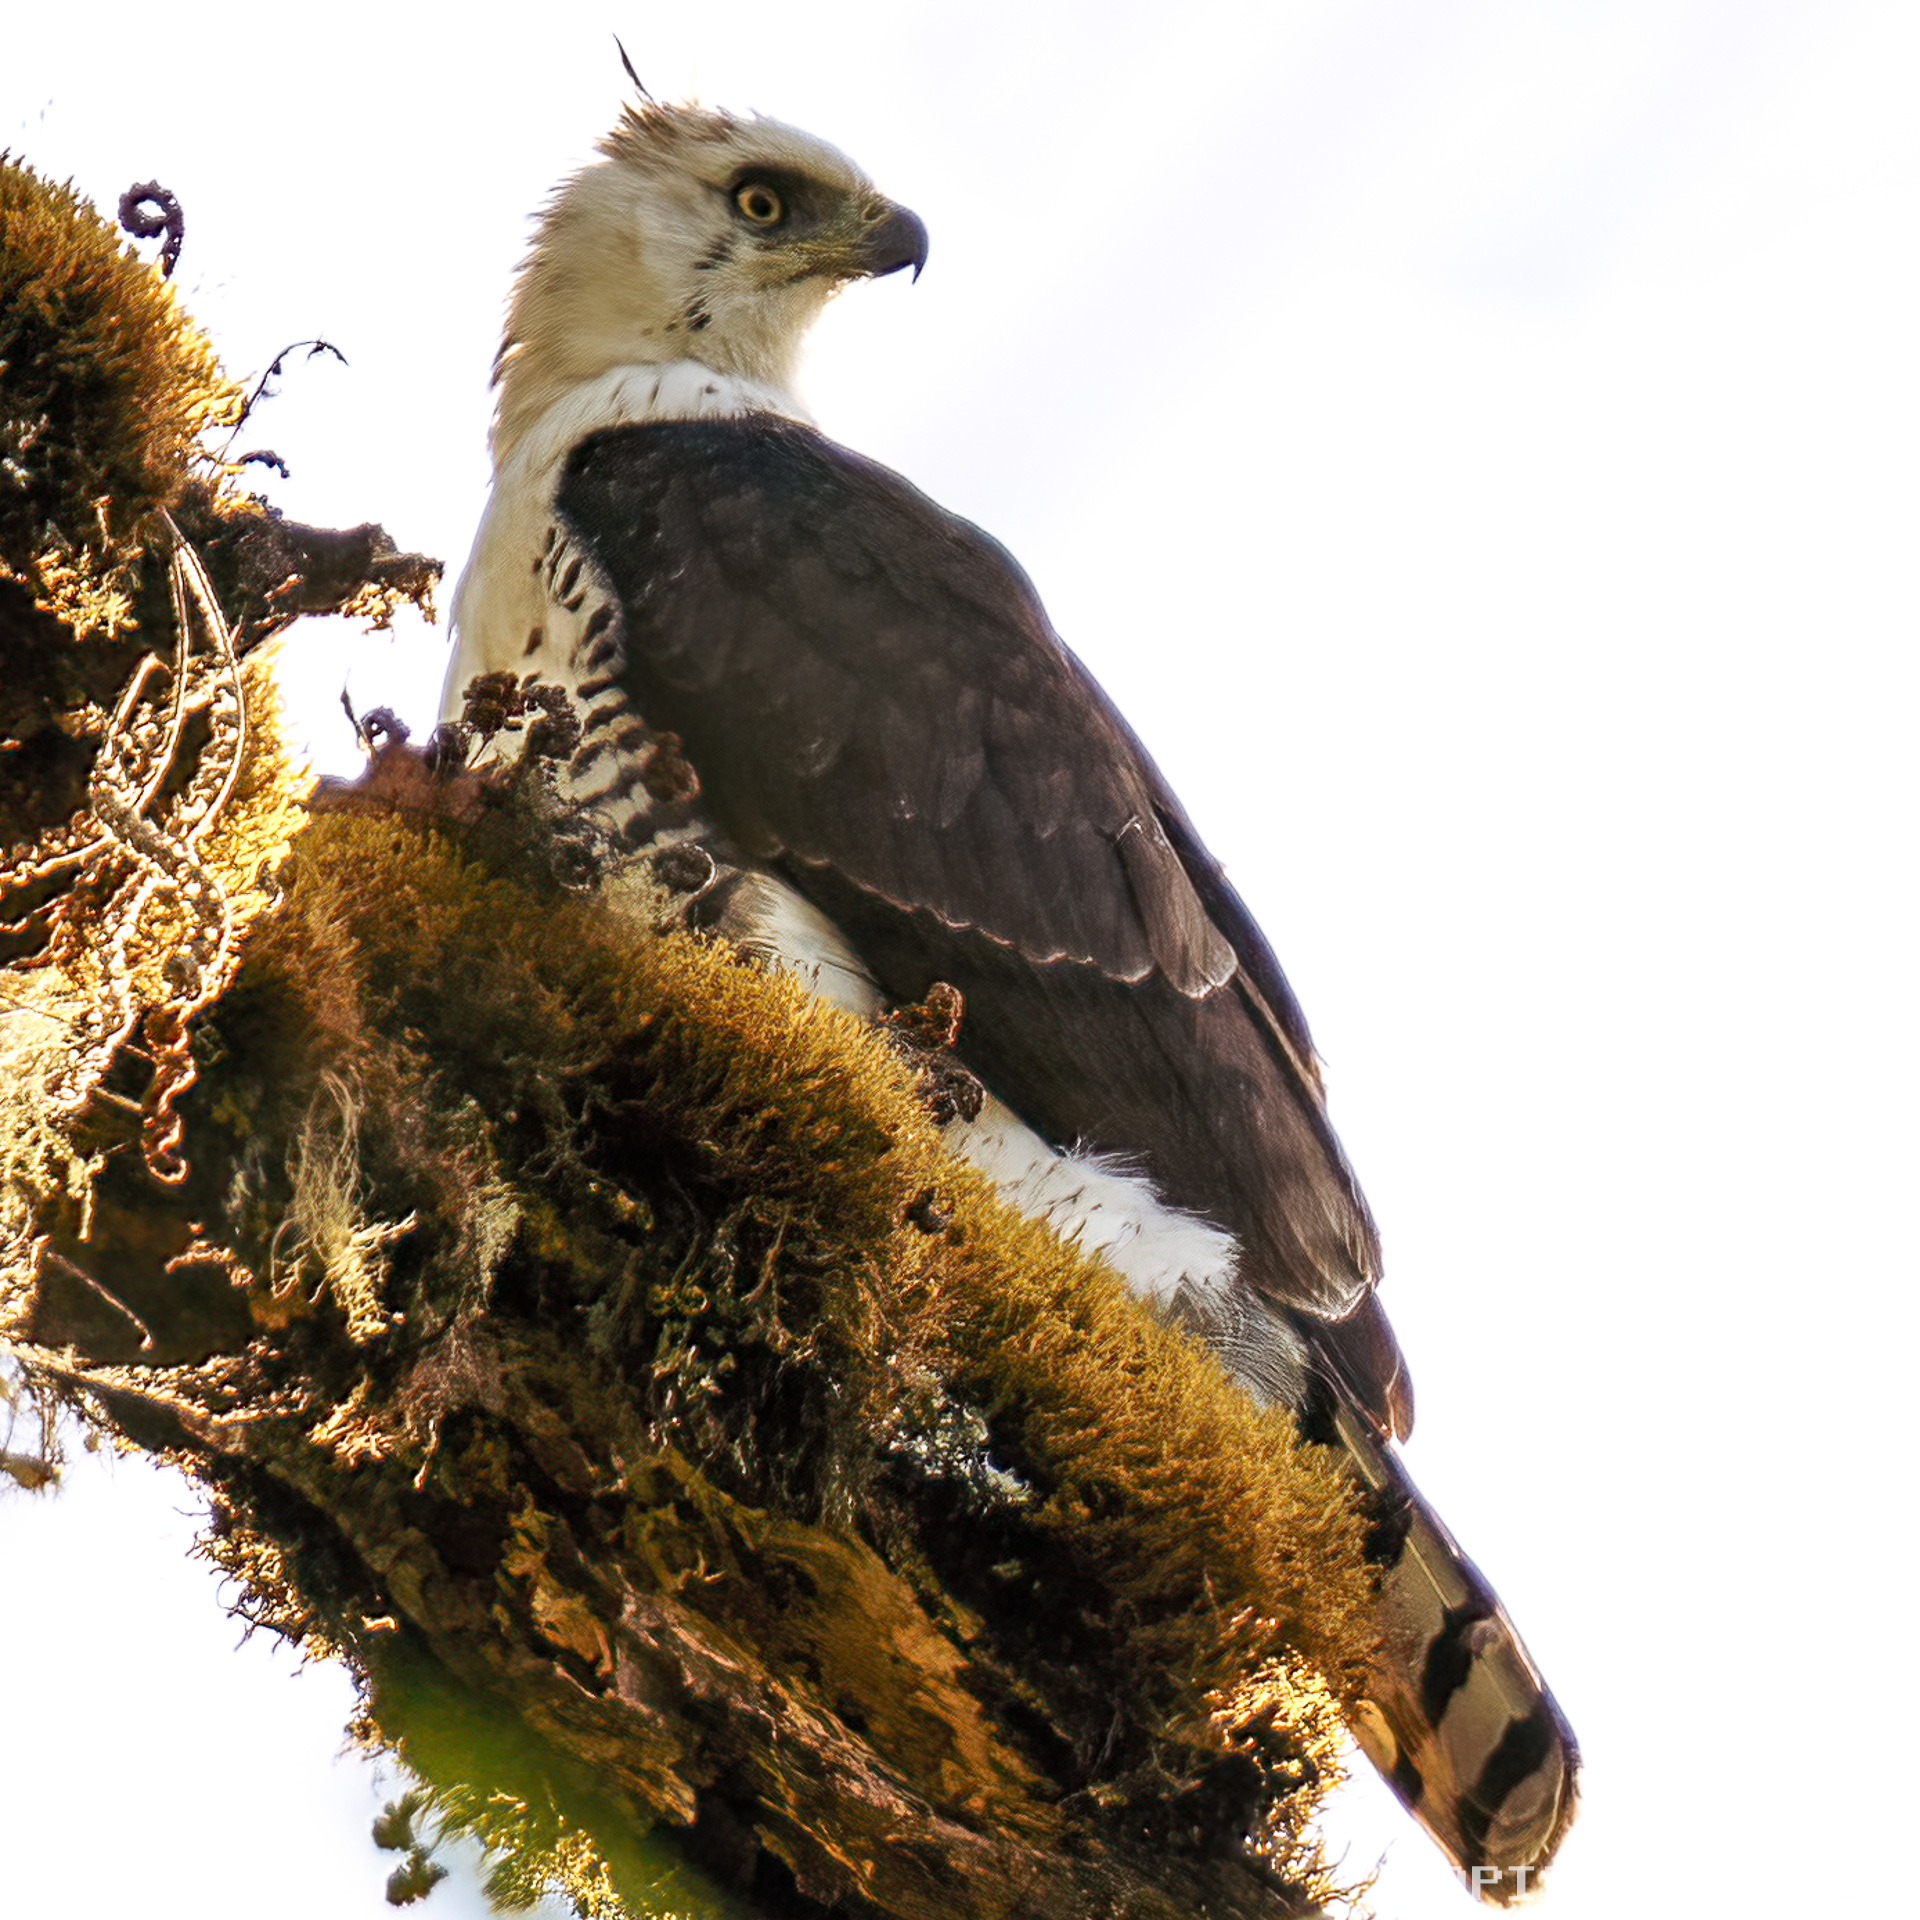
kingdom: Animalia
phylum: Chordata
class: Aves
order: Accipitriformes
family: Accipitridae
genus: Spizaetus
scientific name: Spizaetus ornatus
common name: Ornate hawk-eagle
